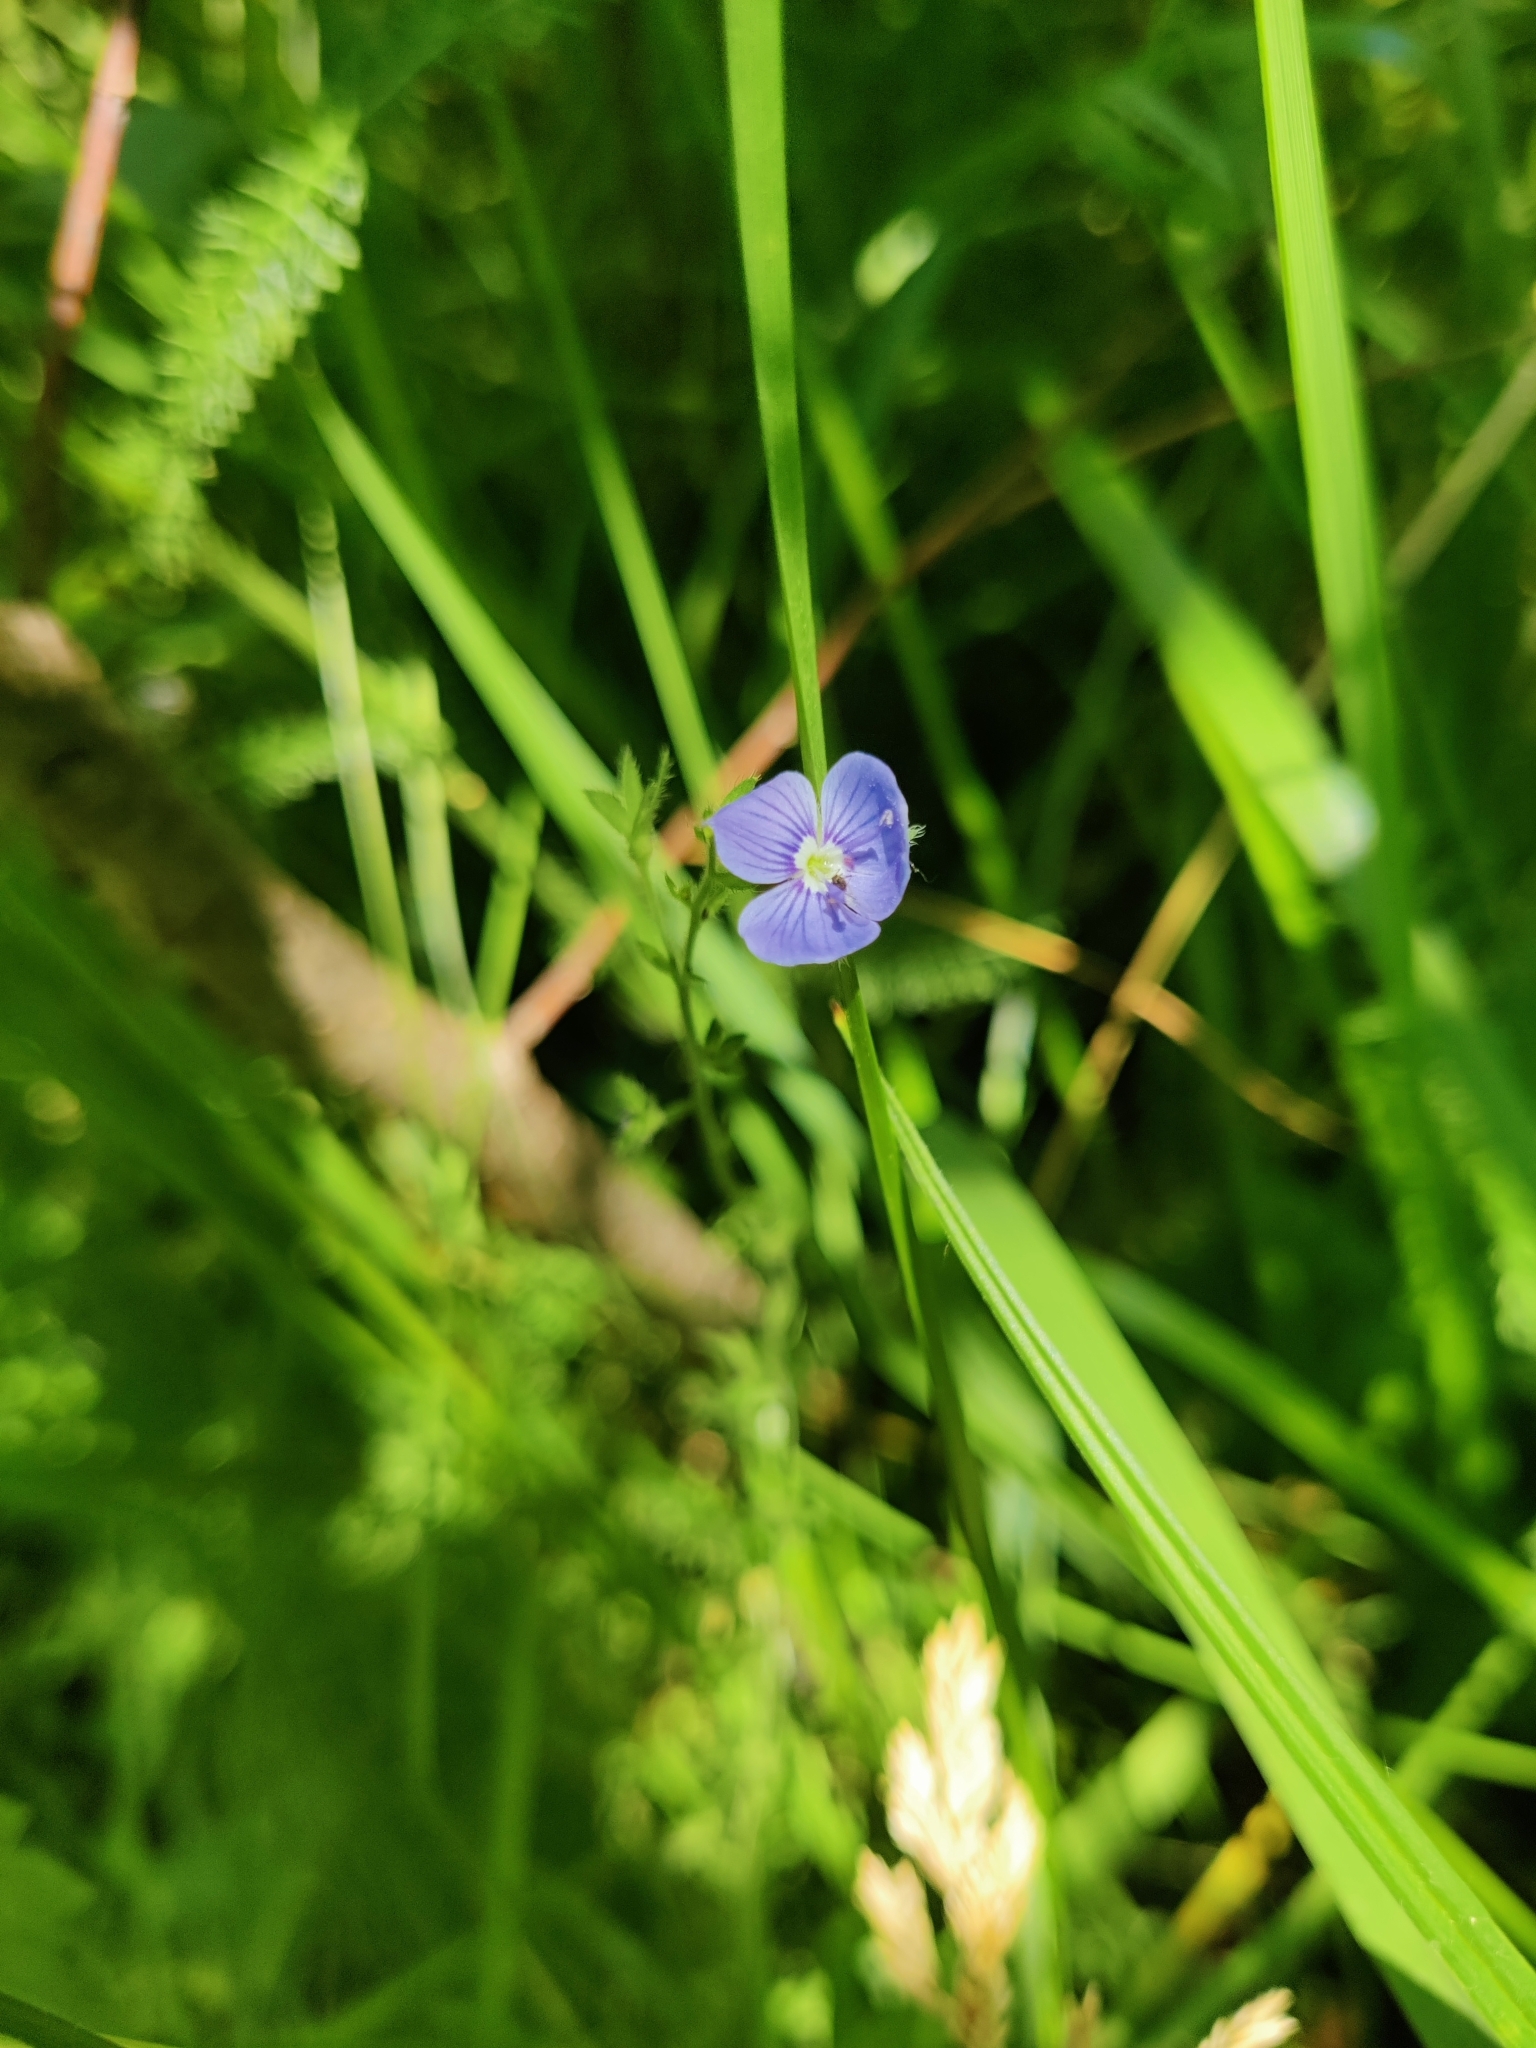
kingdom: Plantae
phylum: Tracheophyta
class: Magnoliopsida
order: Lamiales
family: Plantaginaceae
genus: Veronica
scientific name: Veronica chamaedrys
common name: Germander speedwell
